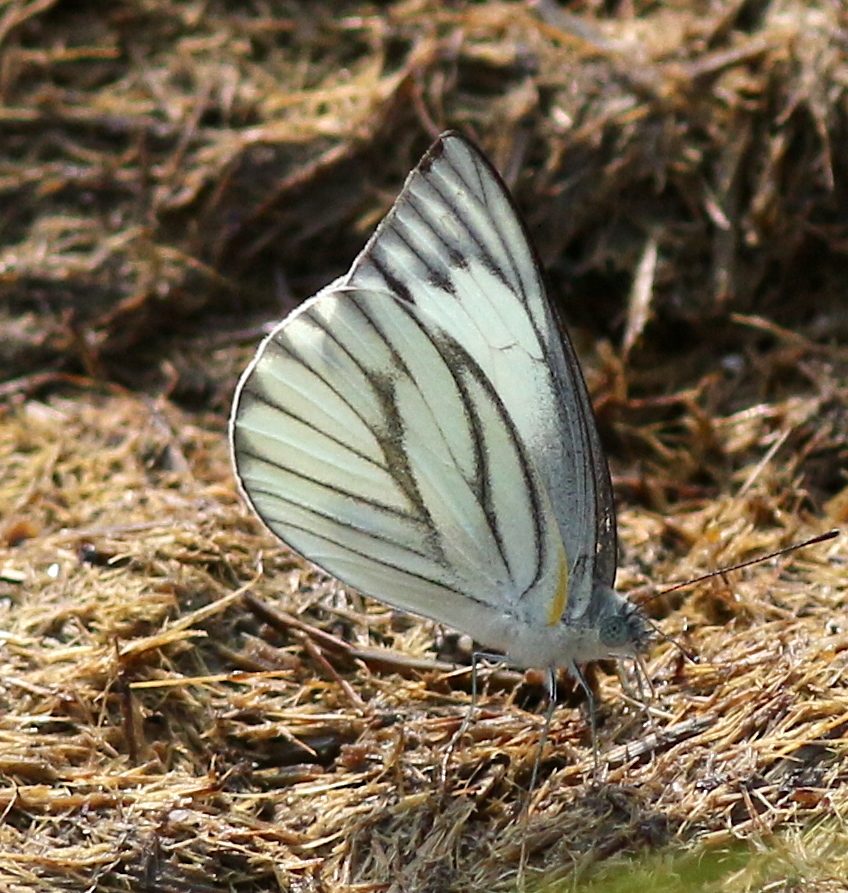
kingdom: Animalia
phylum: Arthropoda
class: Insecta
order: Lepidoptera
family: Pieridae
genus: Appias
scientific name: Appias libythea
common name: Striped albatross
